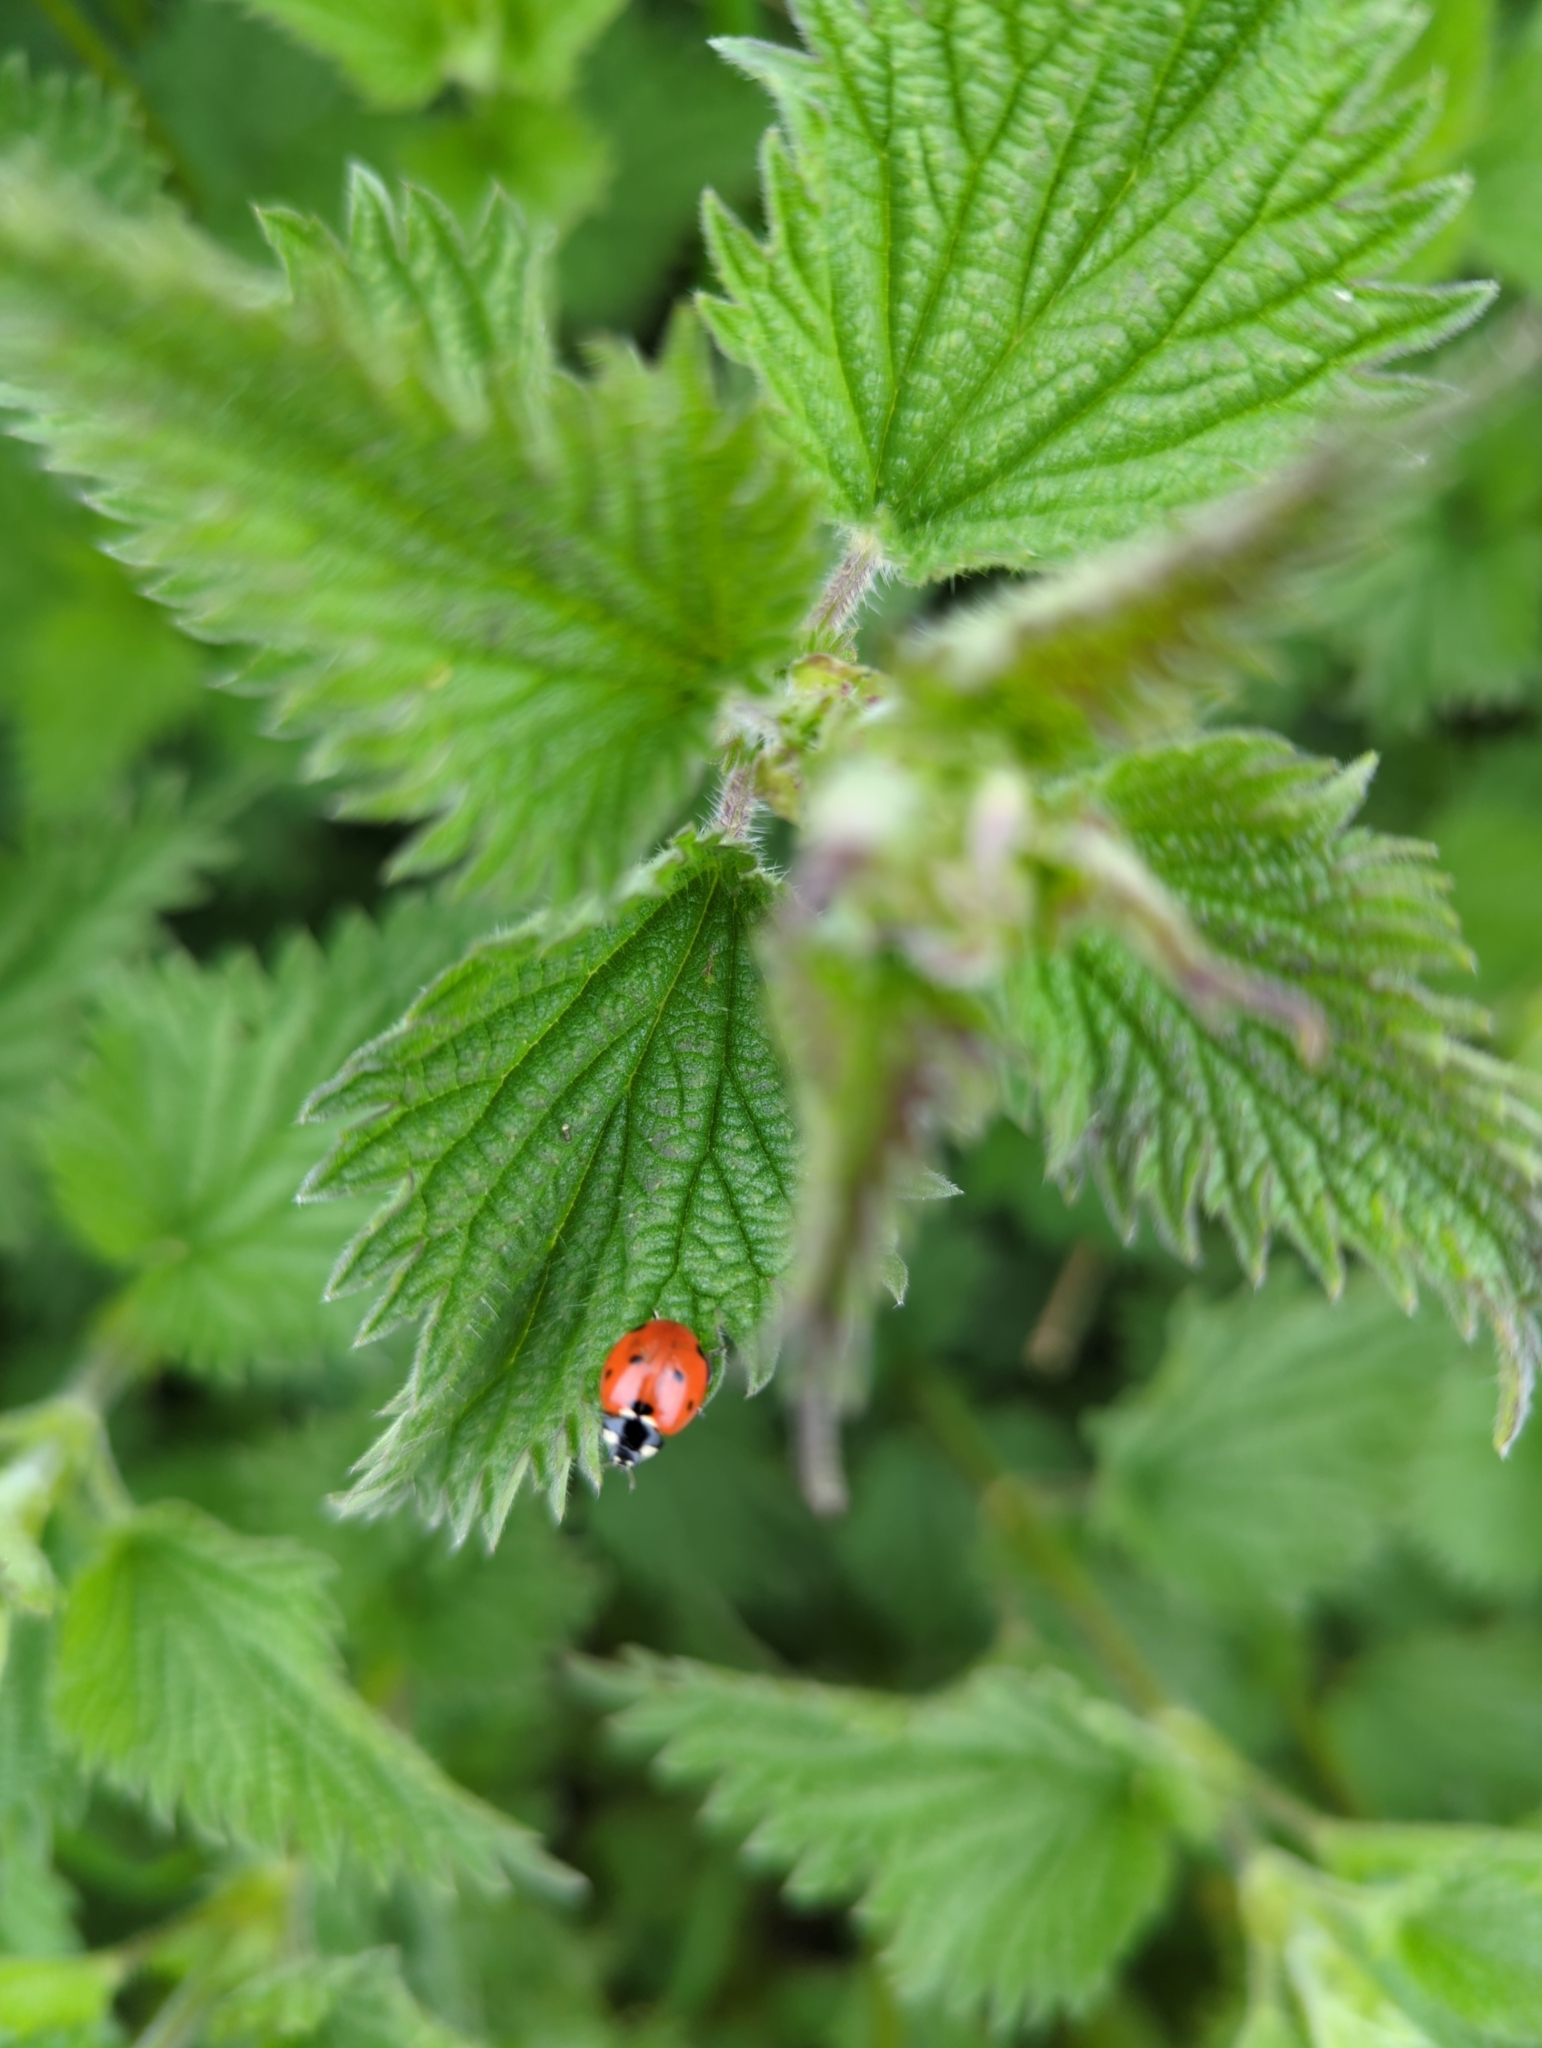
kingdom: Animalia
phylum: Arthropoda
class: Insecta
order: Coleoptera
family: Coccinellidae
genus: Coccinella
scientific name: Coccinella septempunctata
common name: Sevenspotted lady beetle
